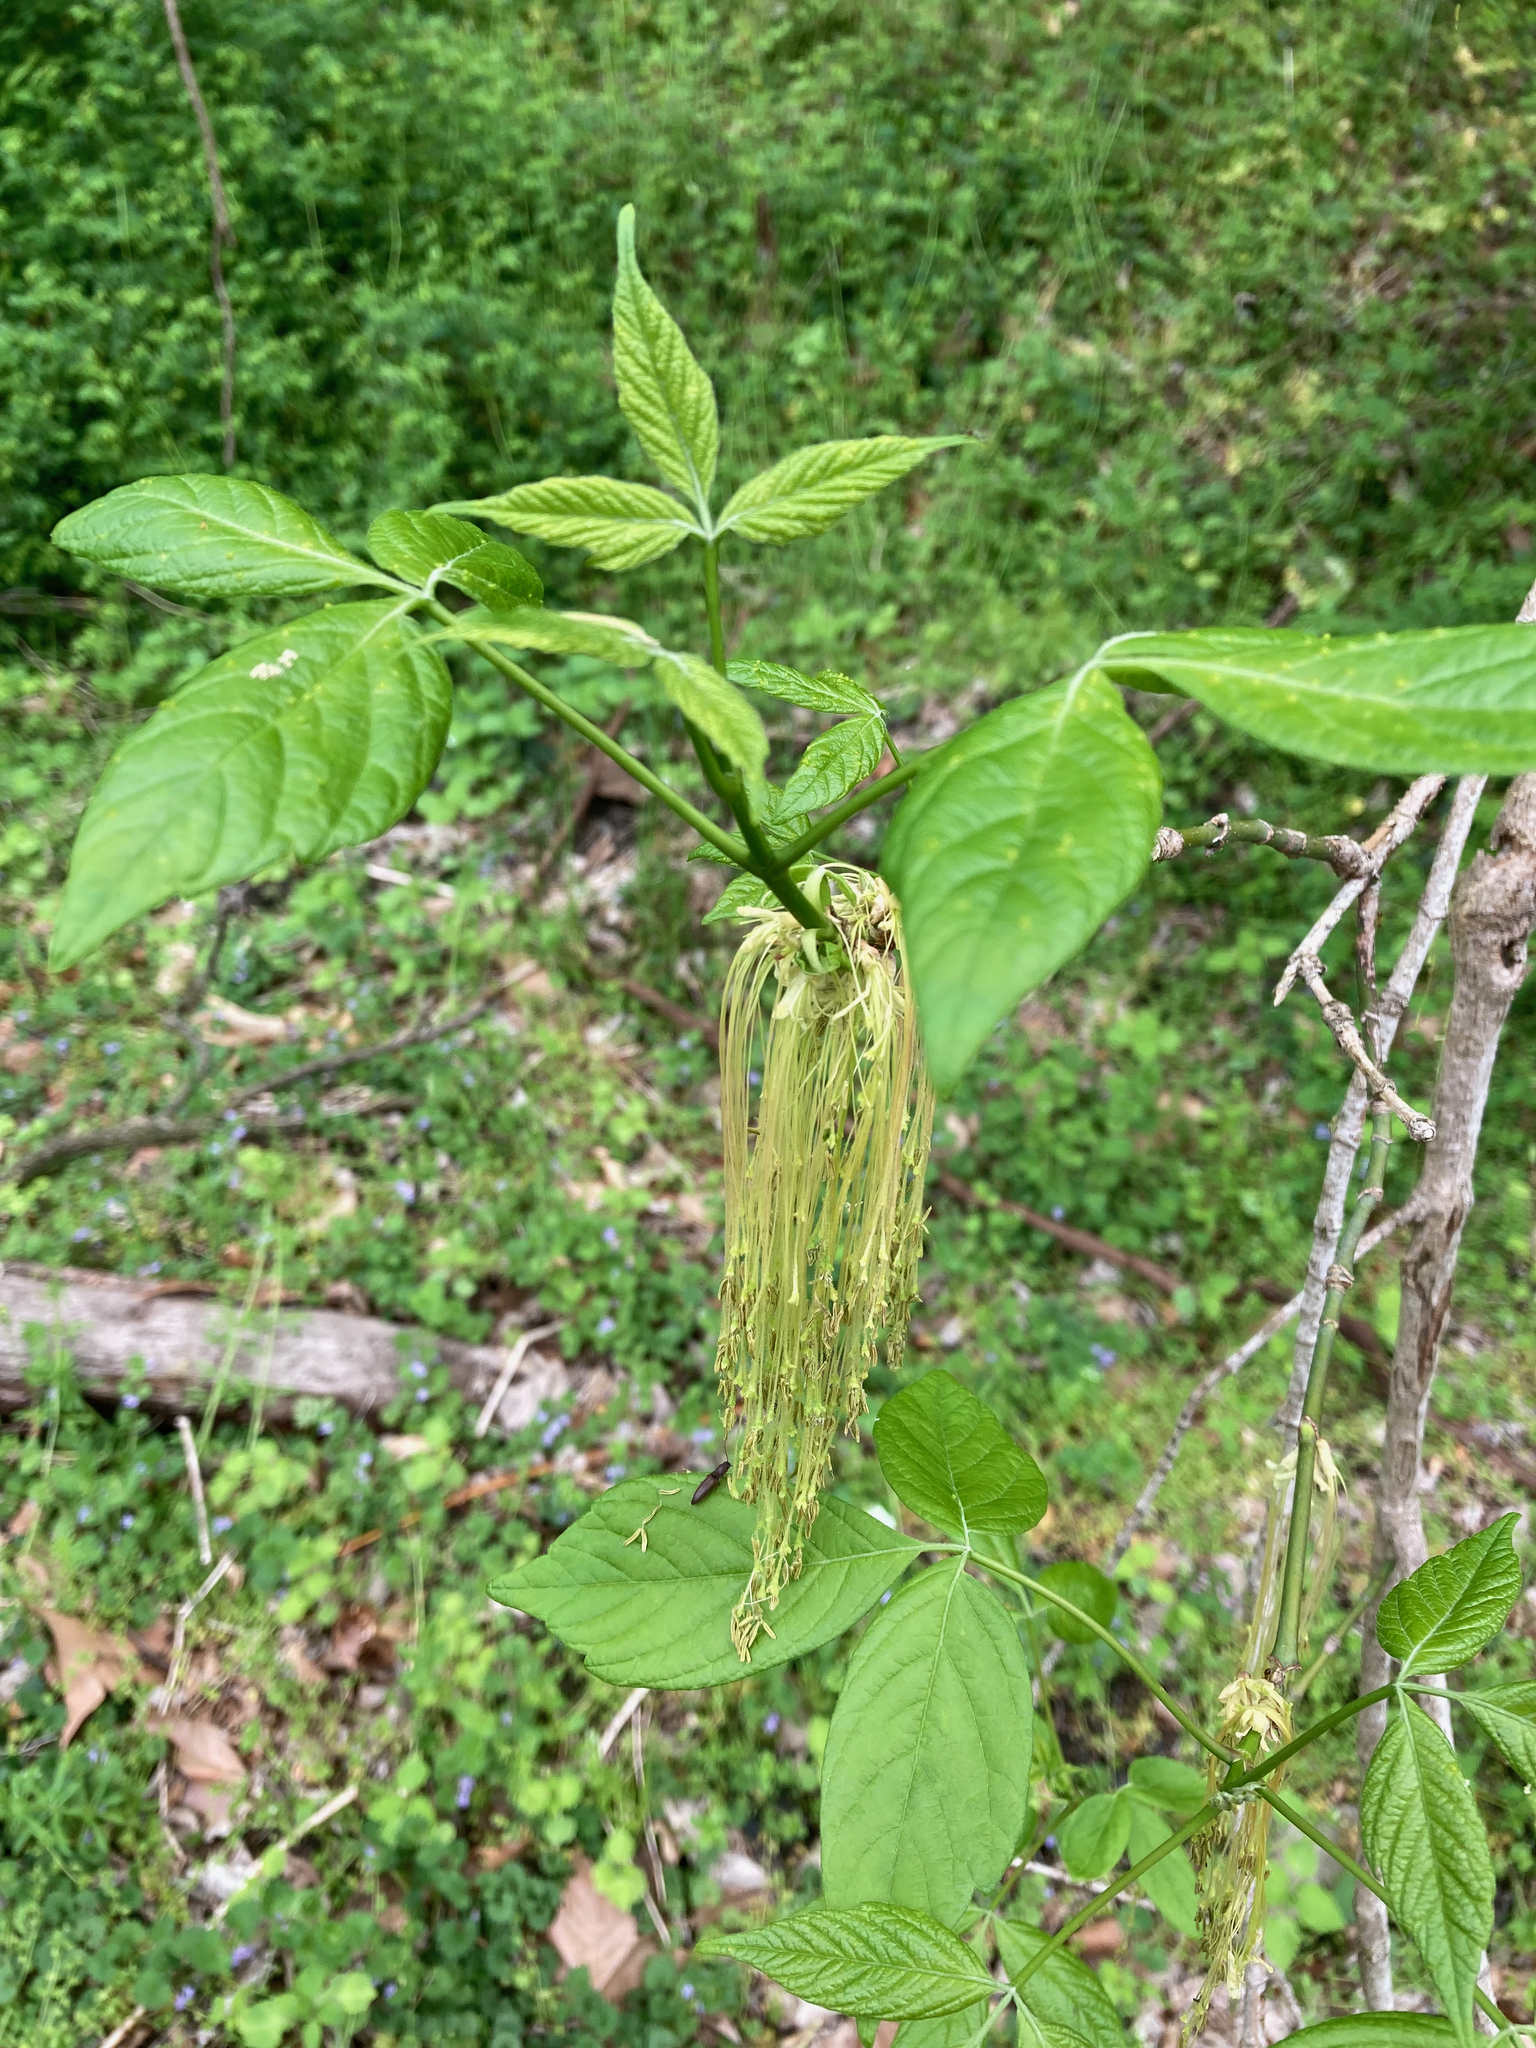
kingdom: Plantae
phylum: Tracheophyta
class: Magnoliopsida
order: Sapindales
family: Sapindaceae
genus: Acer
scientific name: Acer negundo
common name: Ashleaf maple
